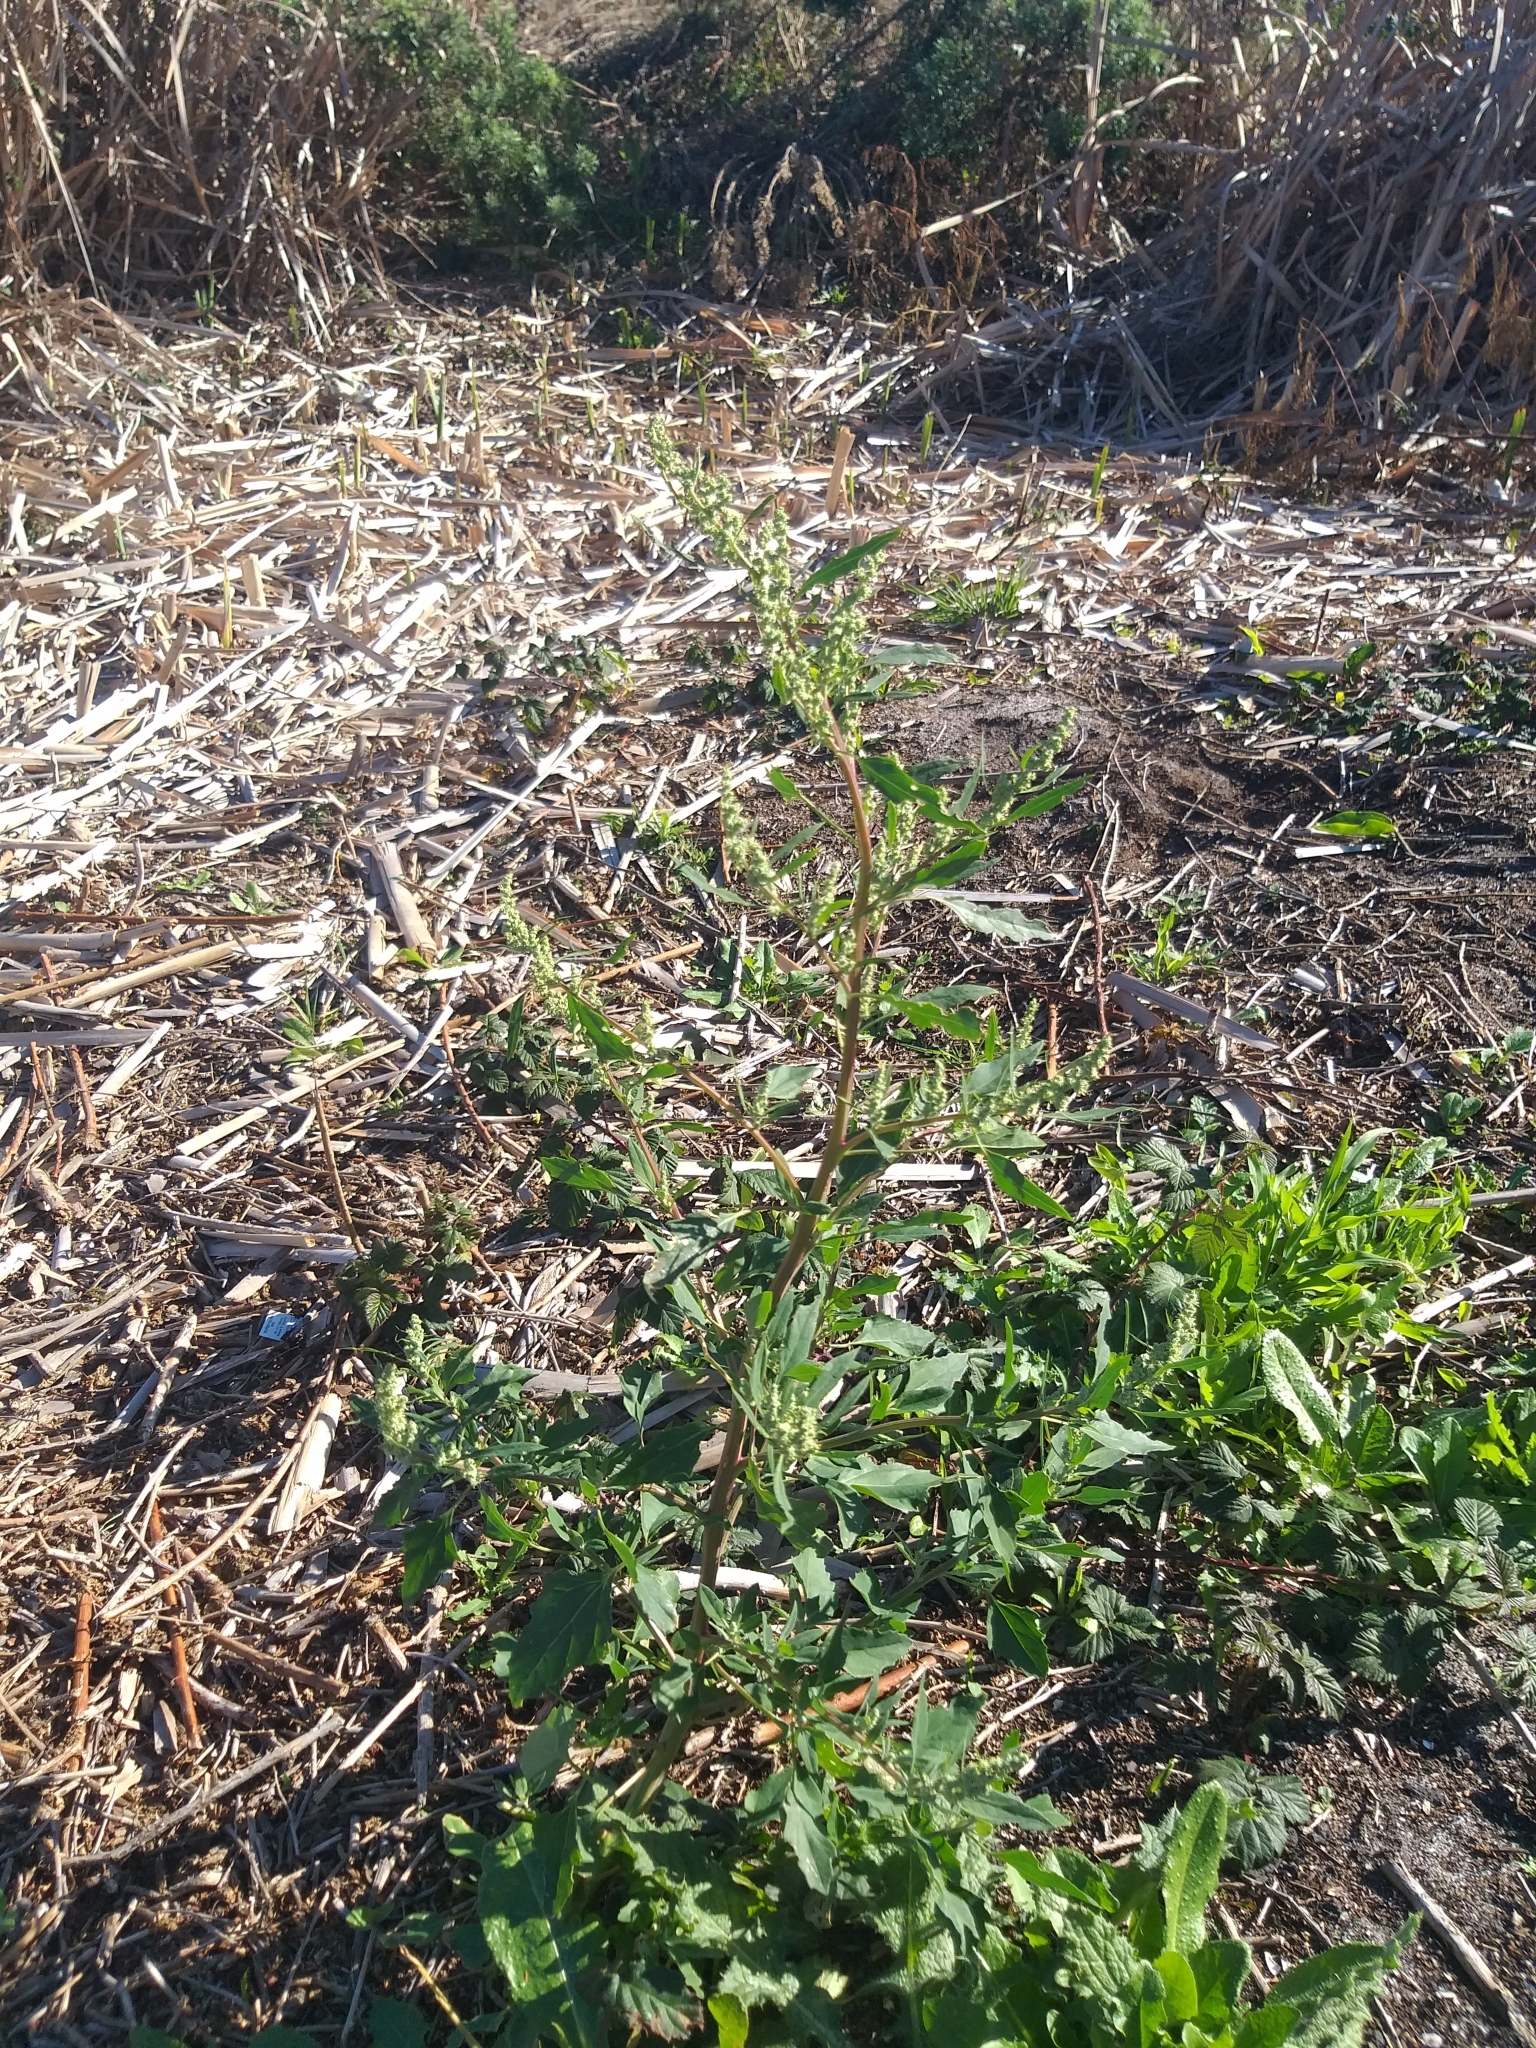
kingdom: Plantae
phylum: Tracheophyta
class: Magnoliopsida
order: Caryophyllales
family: Amaranthaceae
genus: Chenopodium
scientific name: Chenopodium album
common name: Fat-hen
